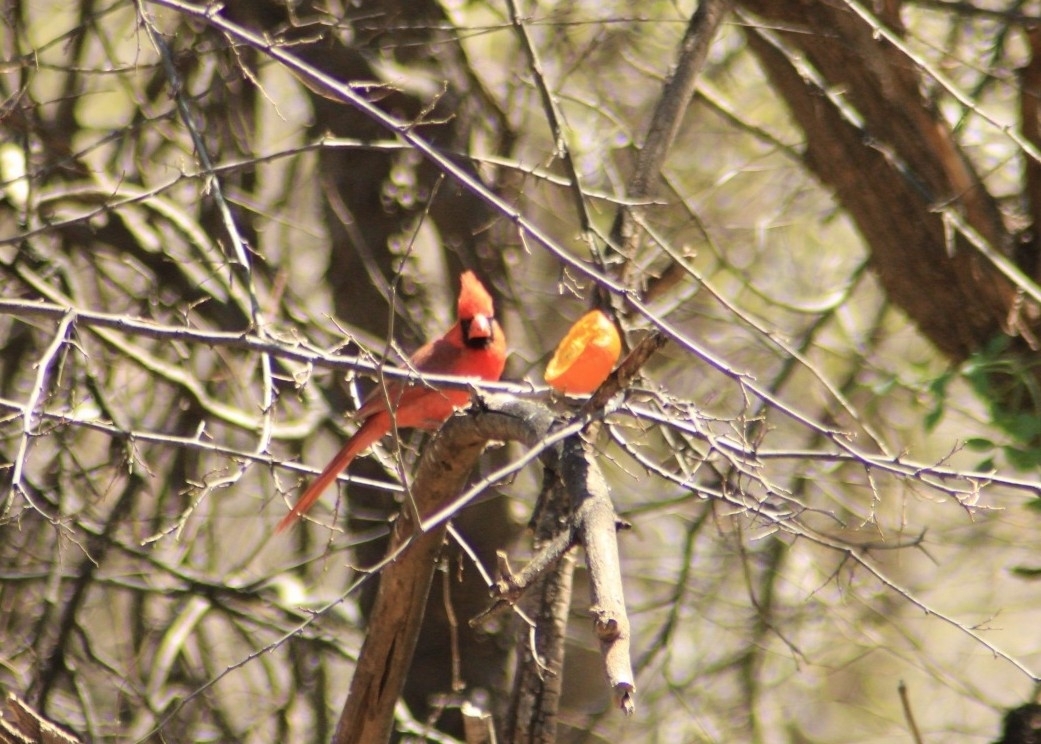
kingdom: Animalia
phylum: Chordata
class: Aves
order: Passeriformes
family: Cardinalidae
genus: Cardinalis
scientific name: Cardinalis cardinalis
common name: Northern cardinal
